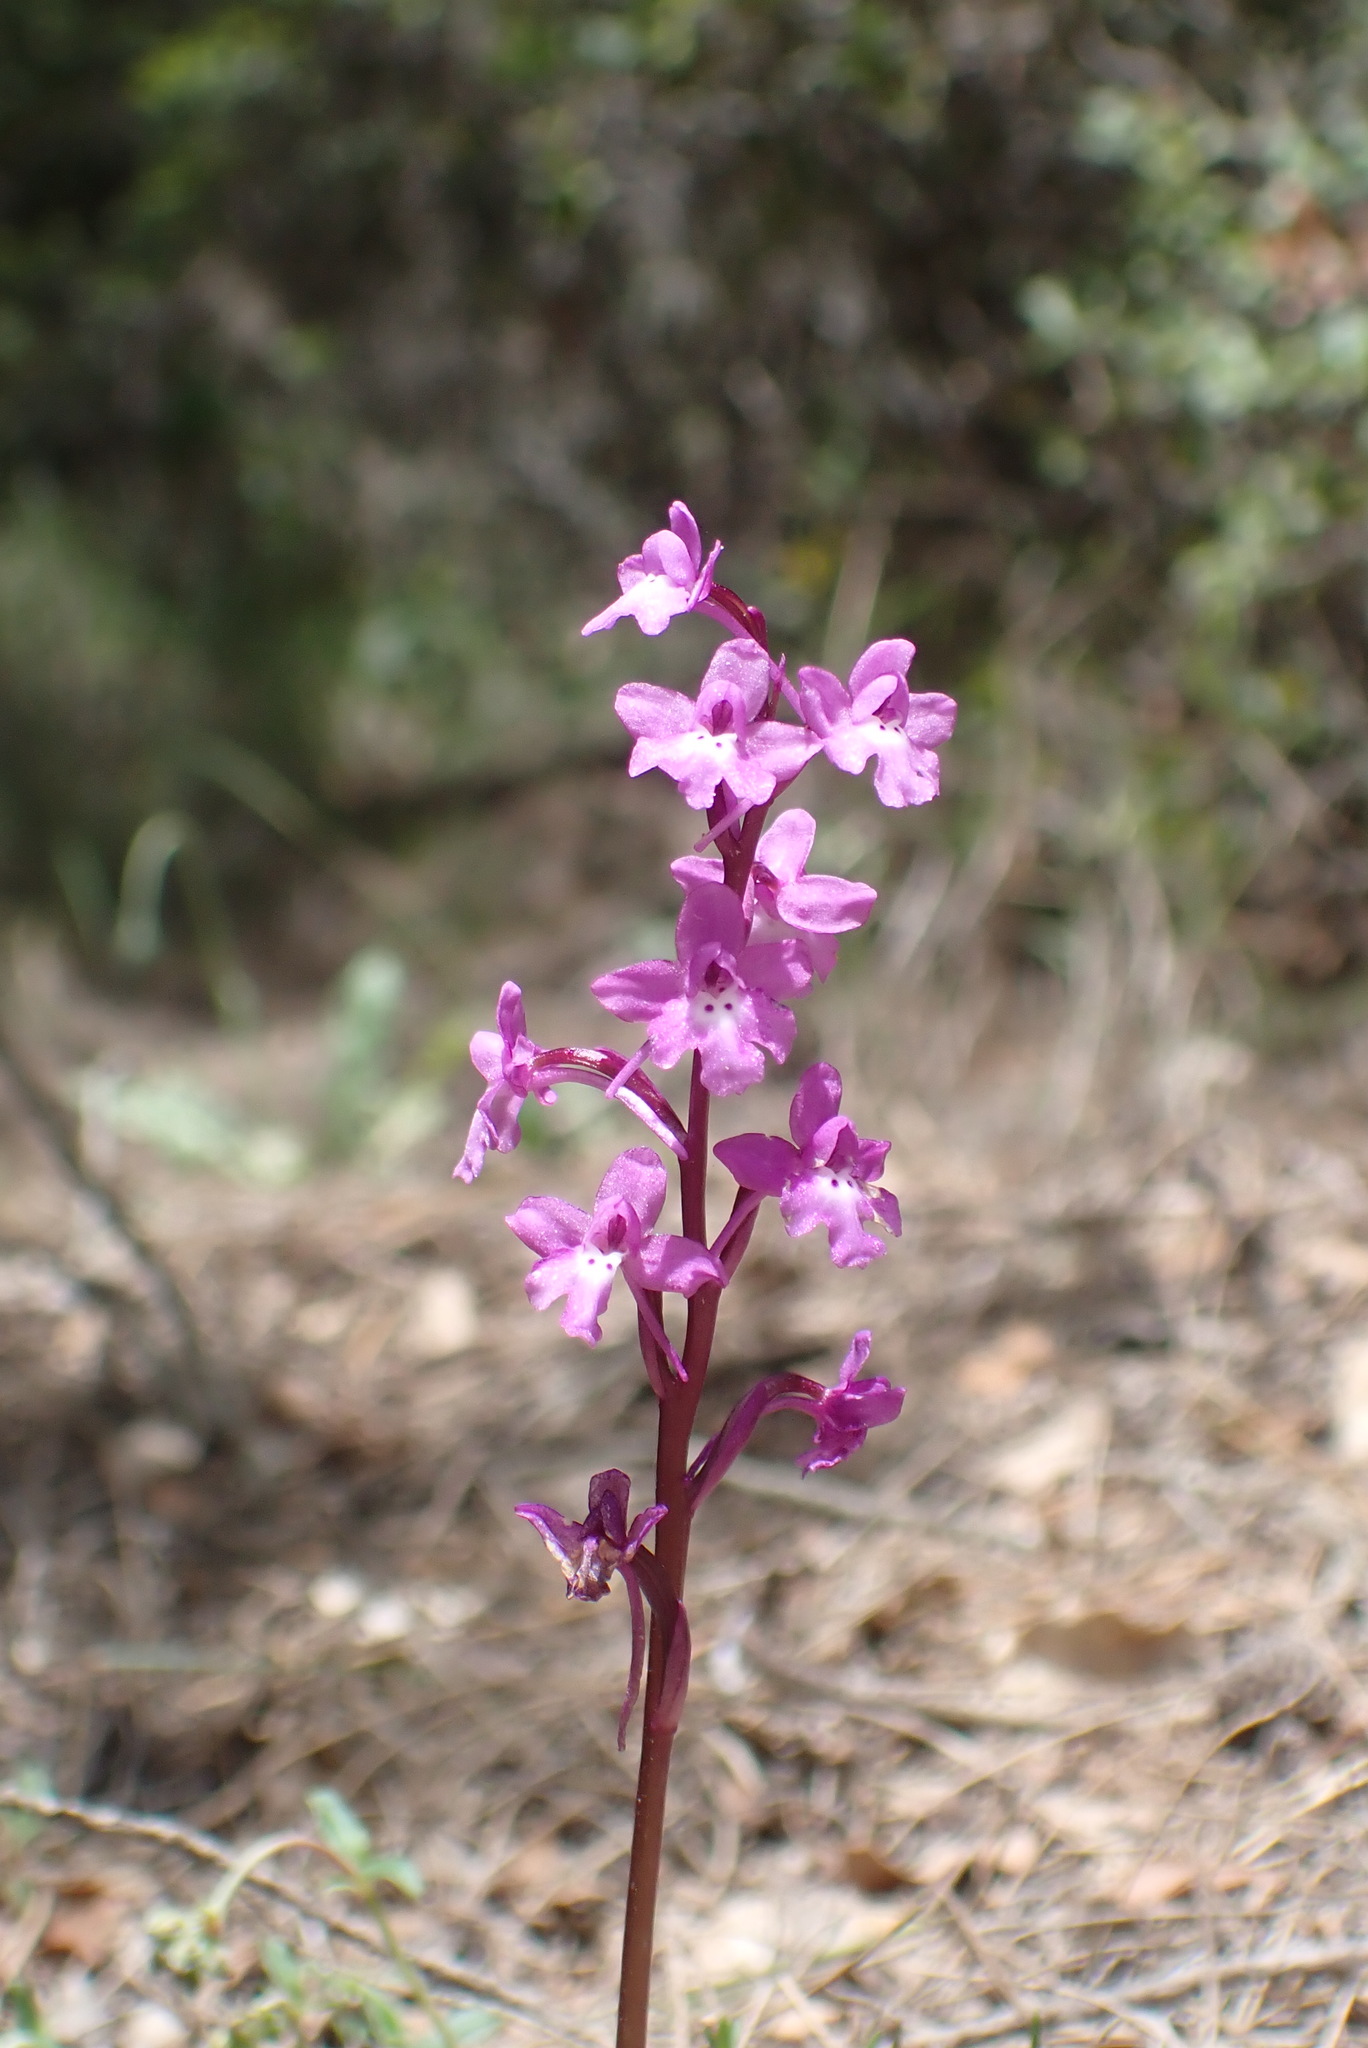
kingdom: Plantae
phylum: Tracheophyta
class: Liliopsida
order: Asparagales
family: Orchidaceae
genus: Orchis
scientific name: Orchis quadripunctata
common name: Four-spotted orchid
